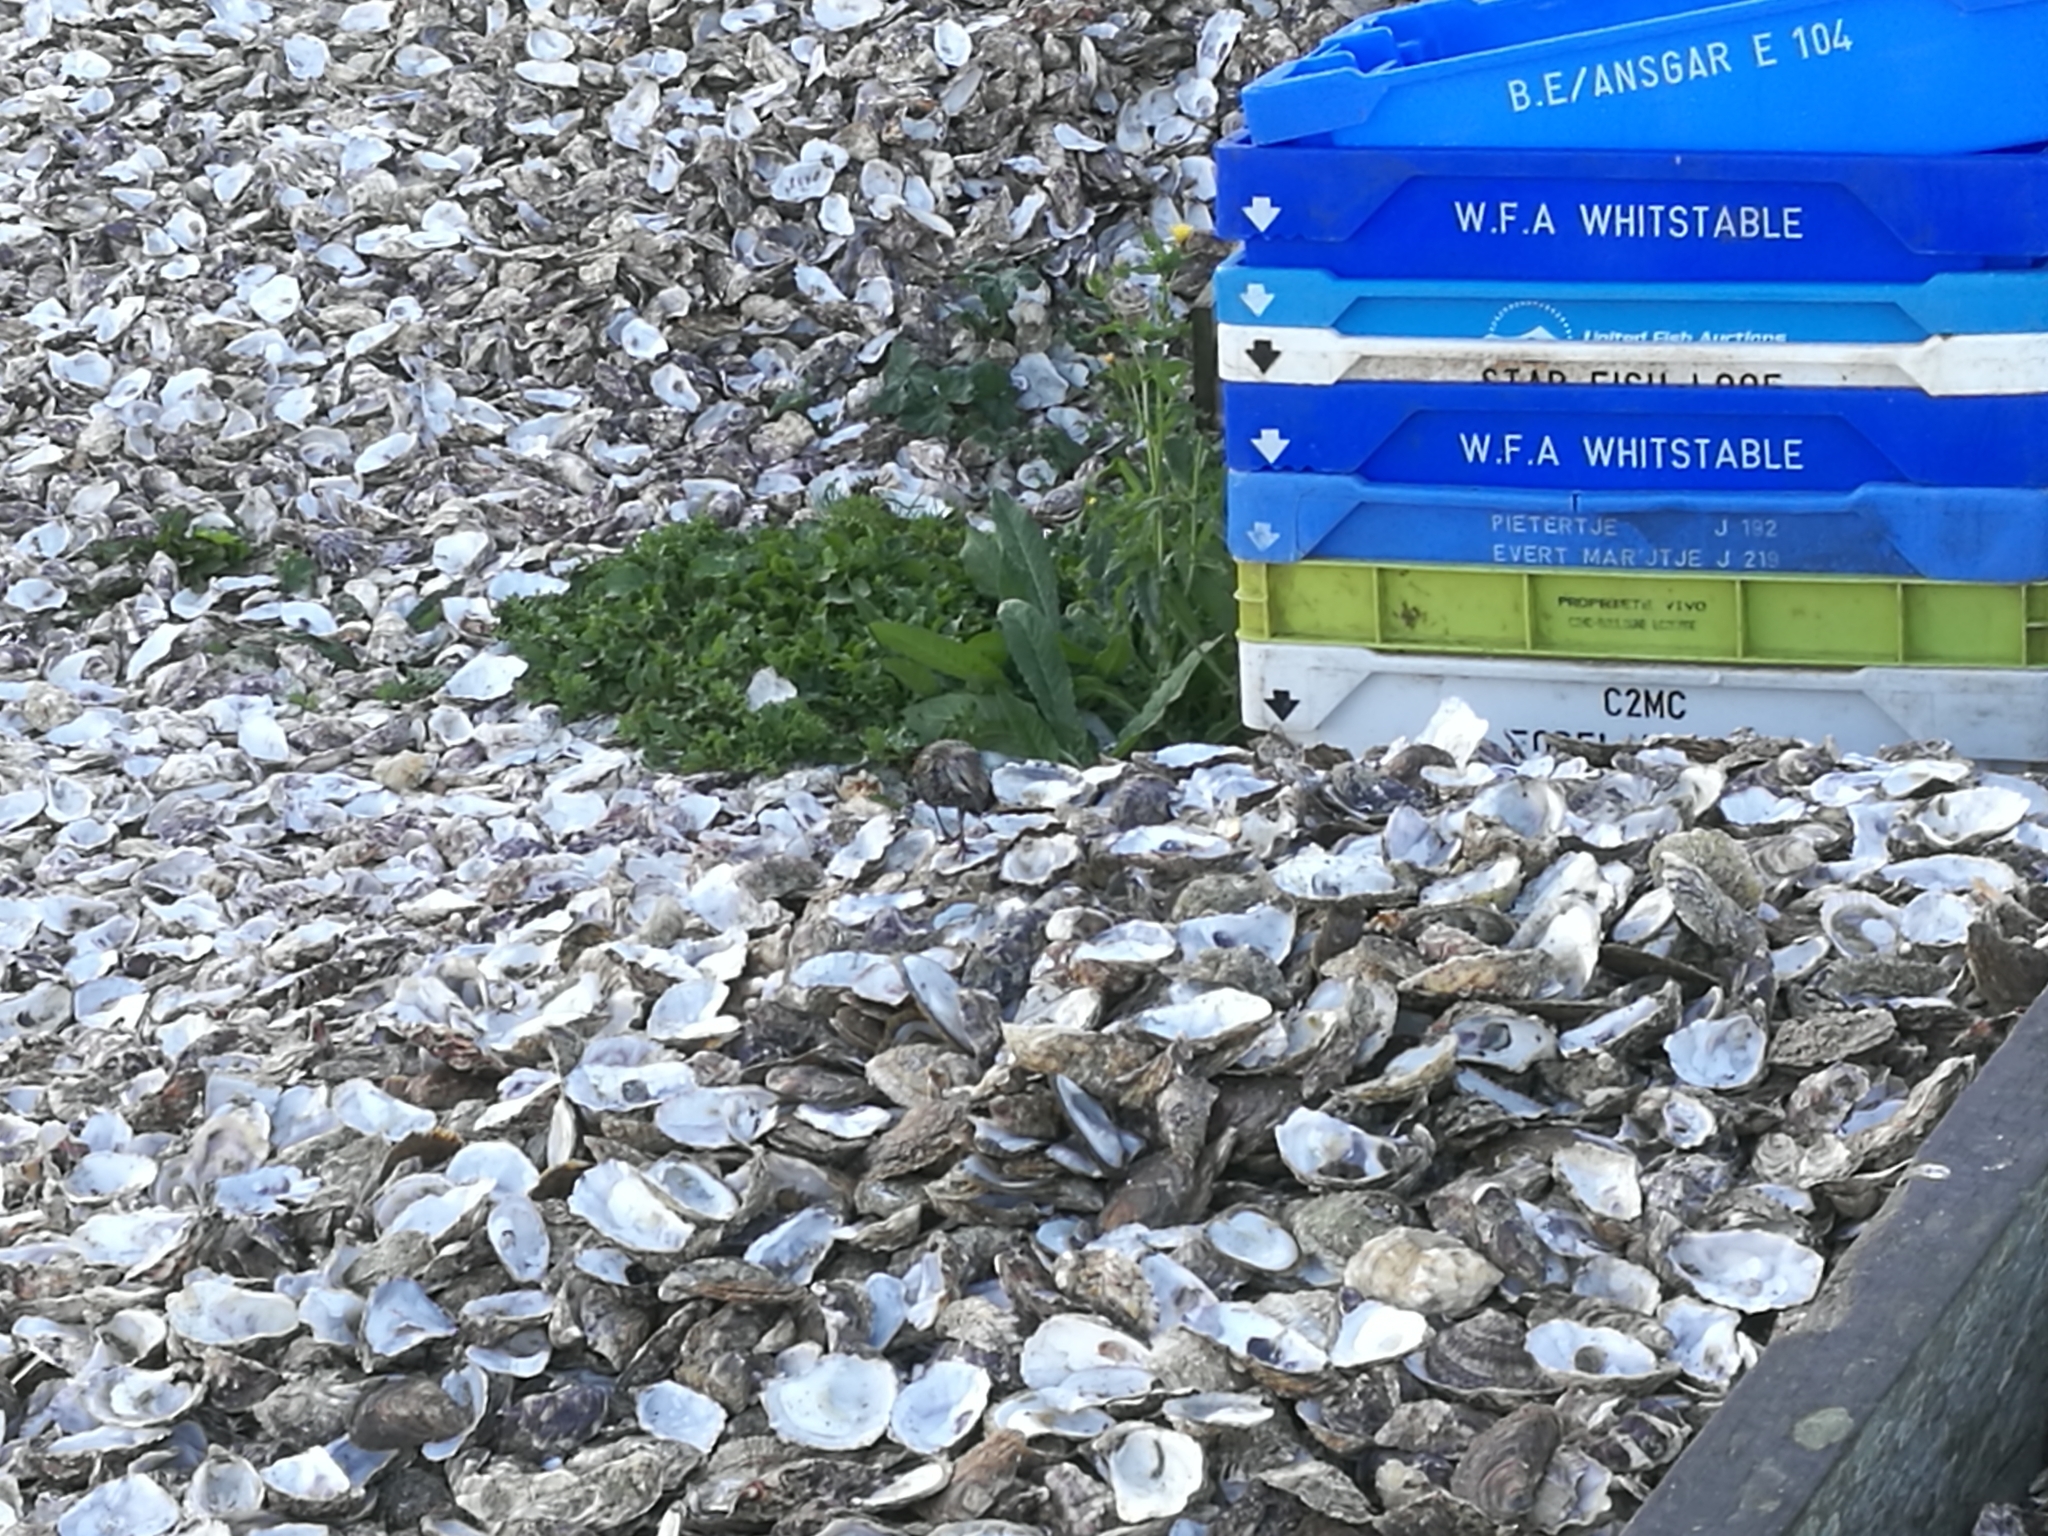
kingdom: Animalia
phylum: Chordata
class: Aves
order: Passeriformes
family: Sturnidae
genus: Sturnus
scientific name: Sturnus vulgaris
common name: Common starling
